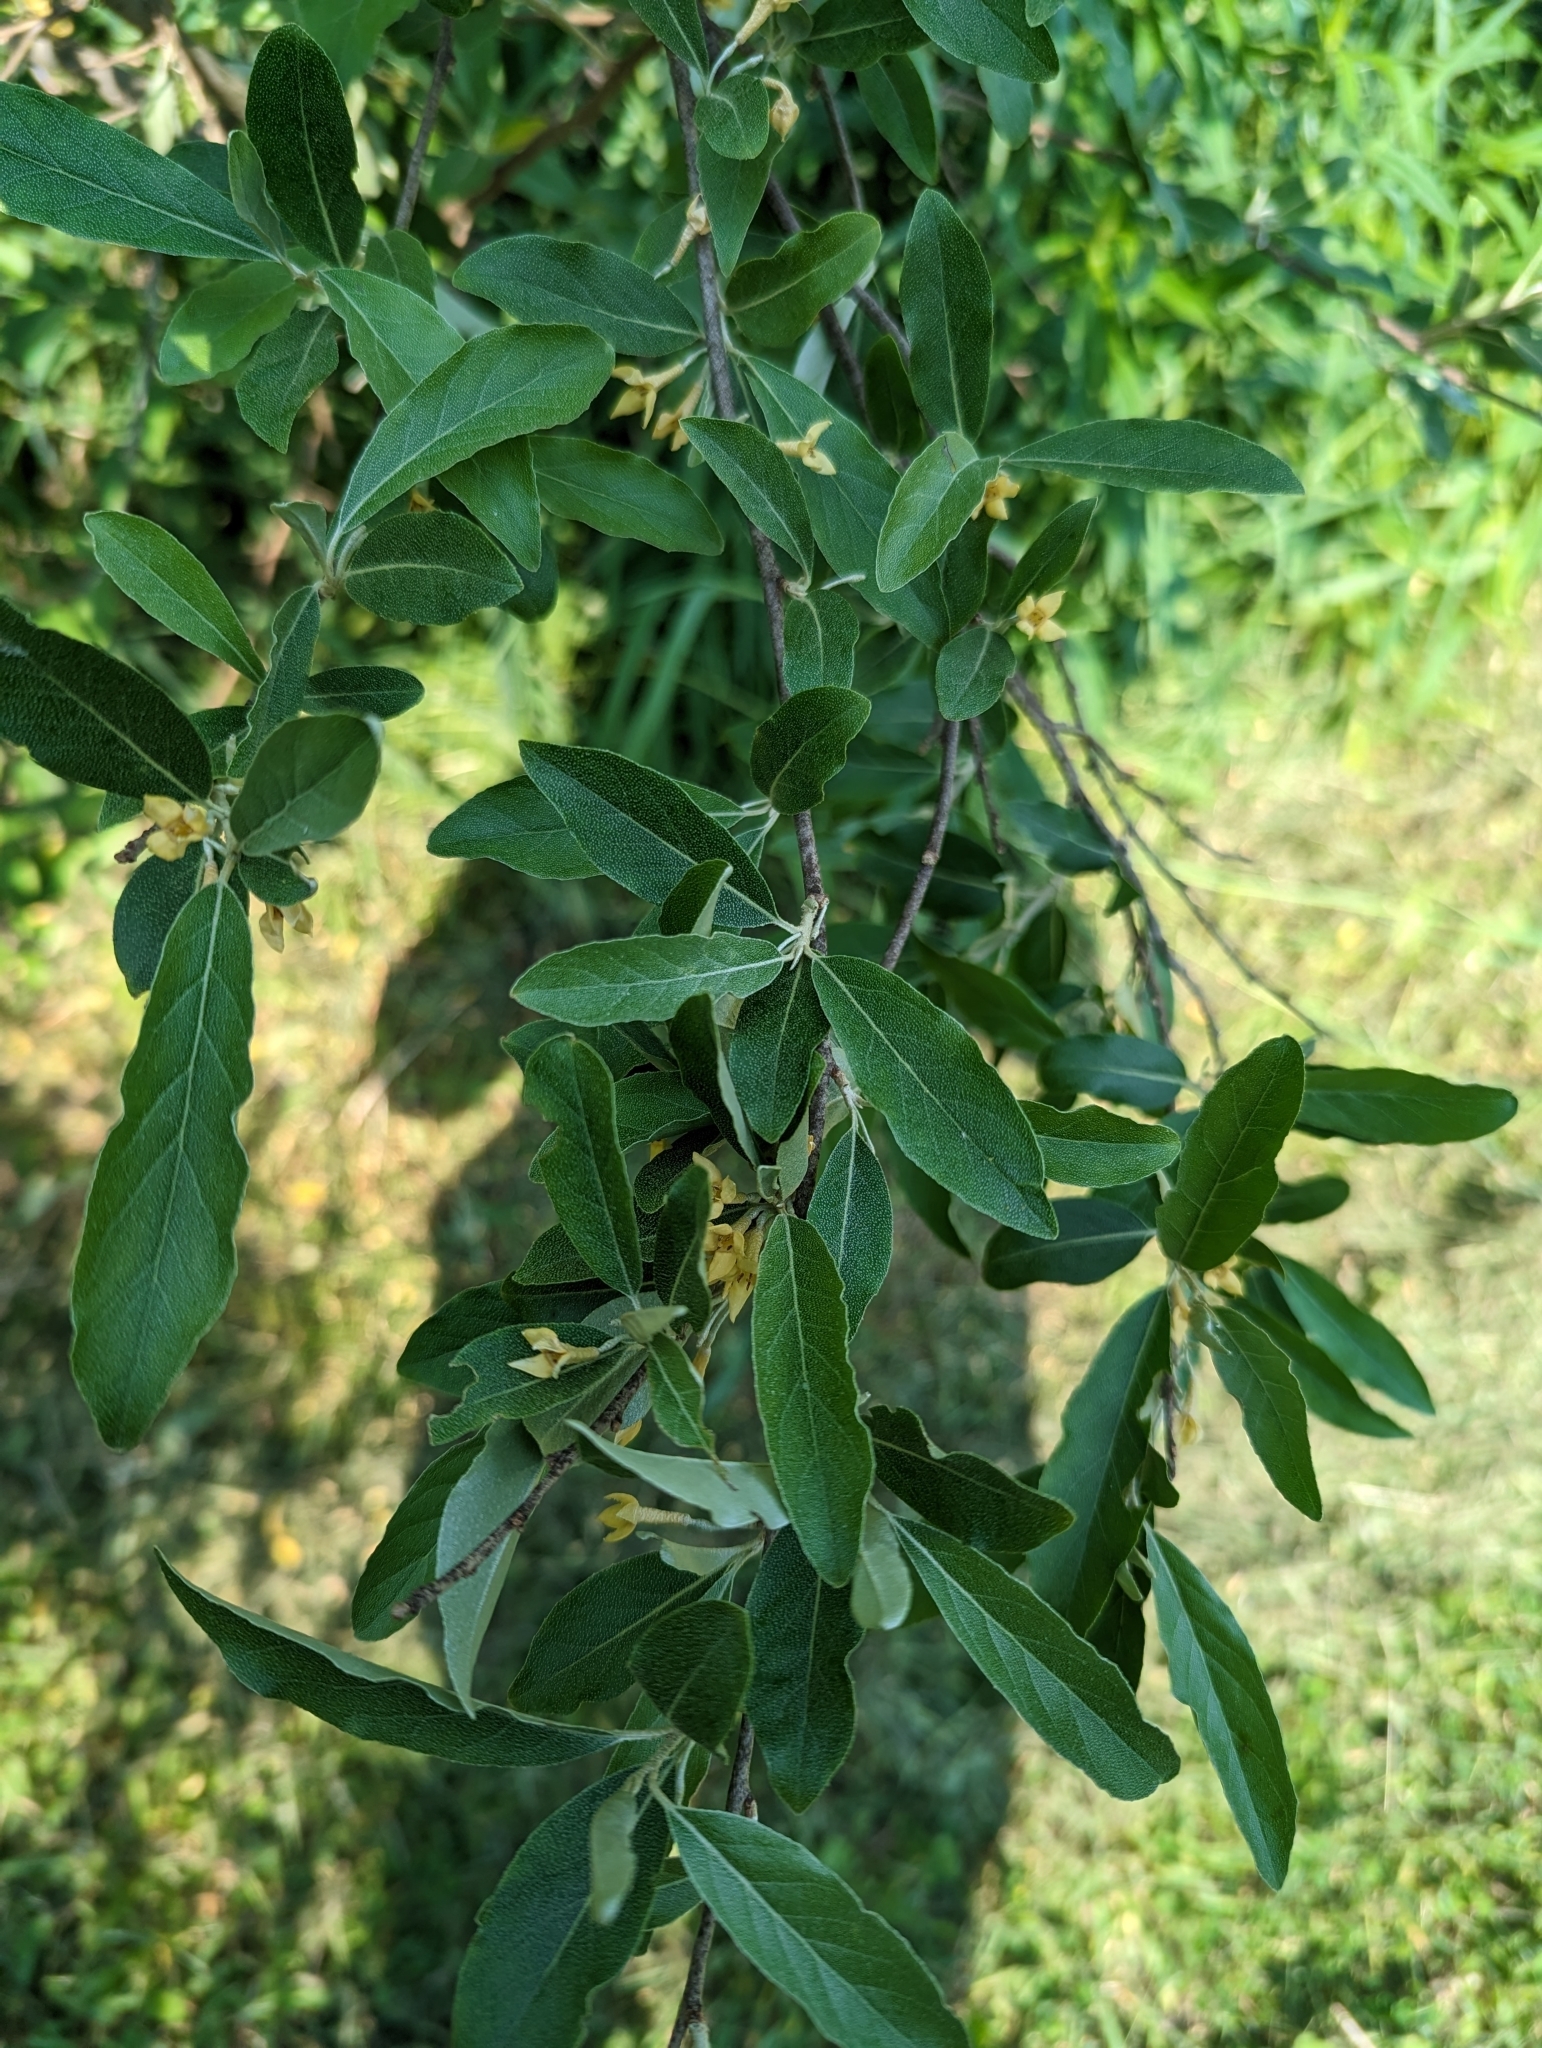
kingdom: Plantae
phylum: Tracheophyta
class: Magnoliopsida
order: Rosales
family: Elaeagnaceae
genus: Elaeagnus
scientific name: Elaeagnus umbellata
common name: Autumn olive
